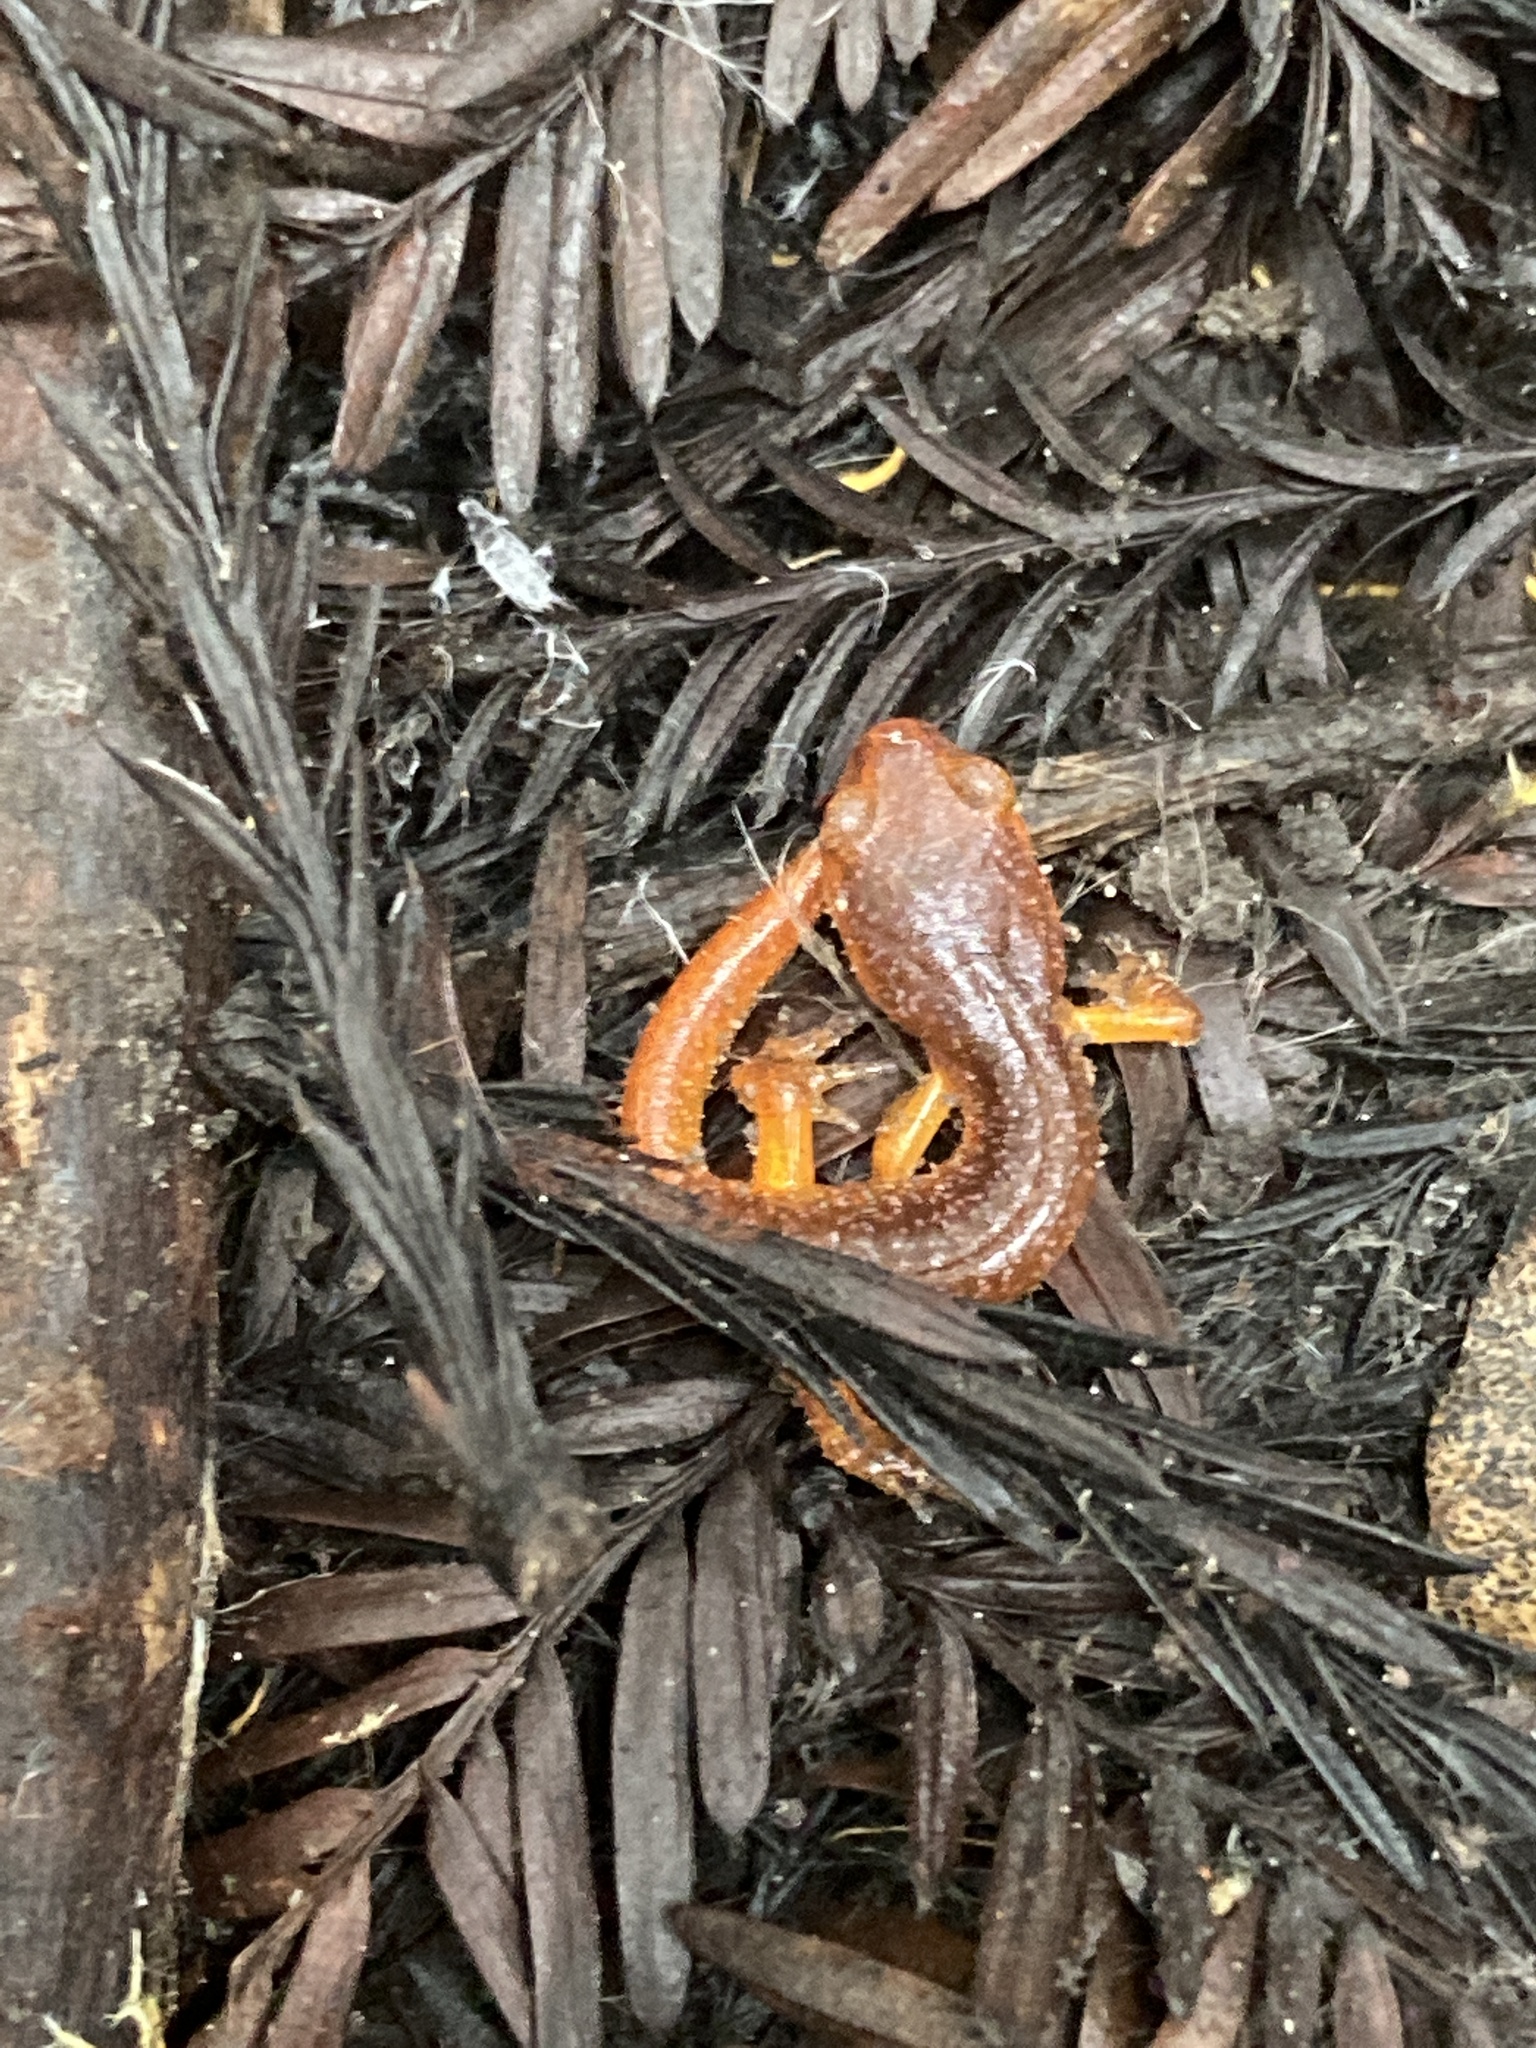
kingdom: Animalia
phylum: Chordata
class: Amphibia
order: Caudata
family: Plethodontidae
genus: Ensatina
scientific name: Ensatina eschscholtzii
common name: Ensatina
